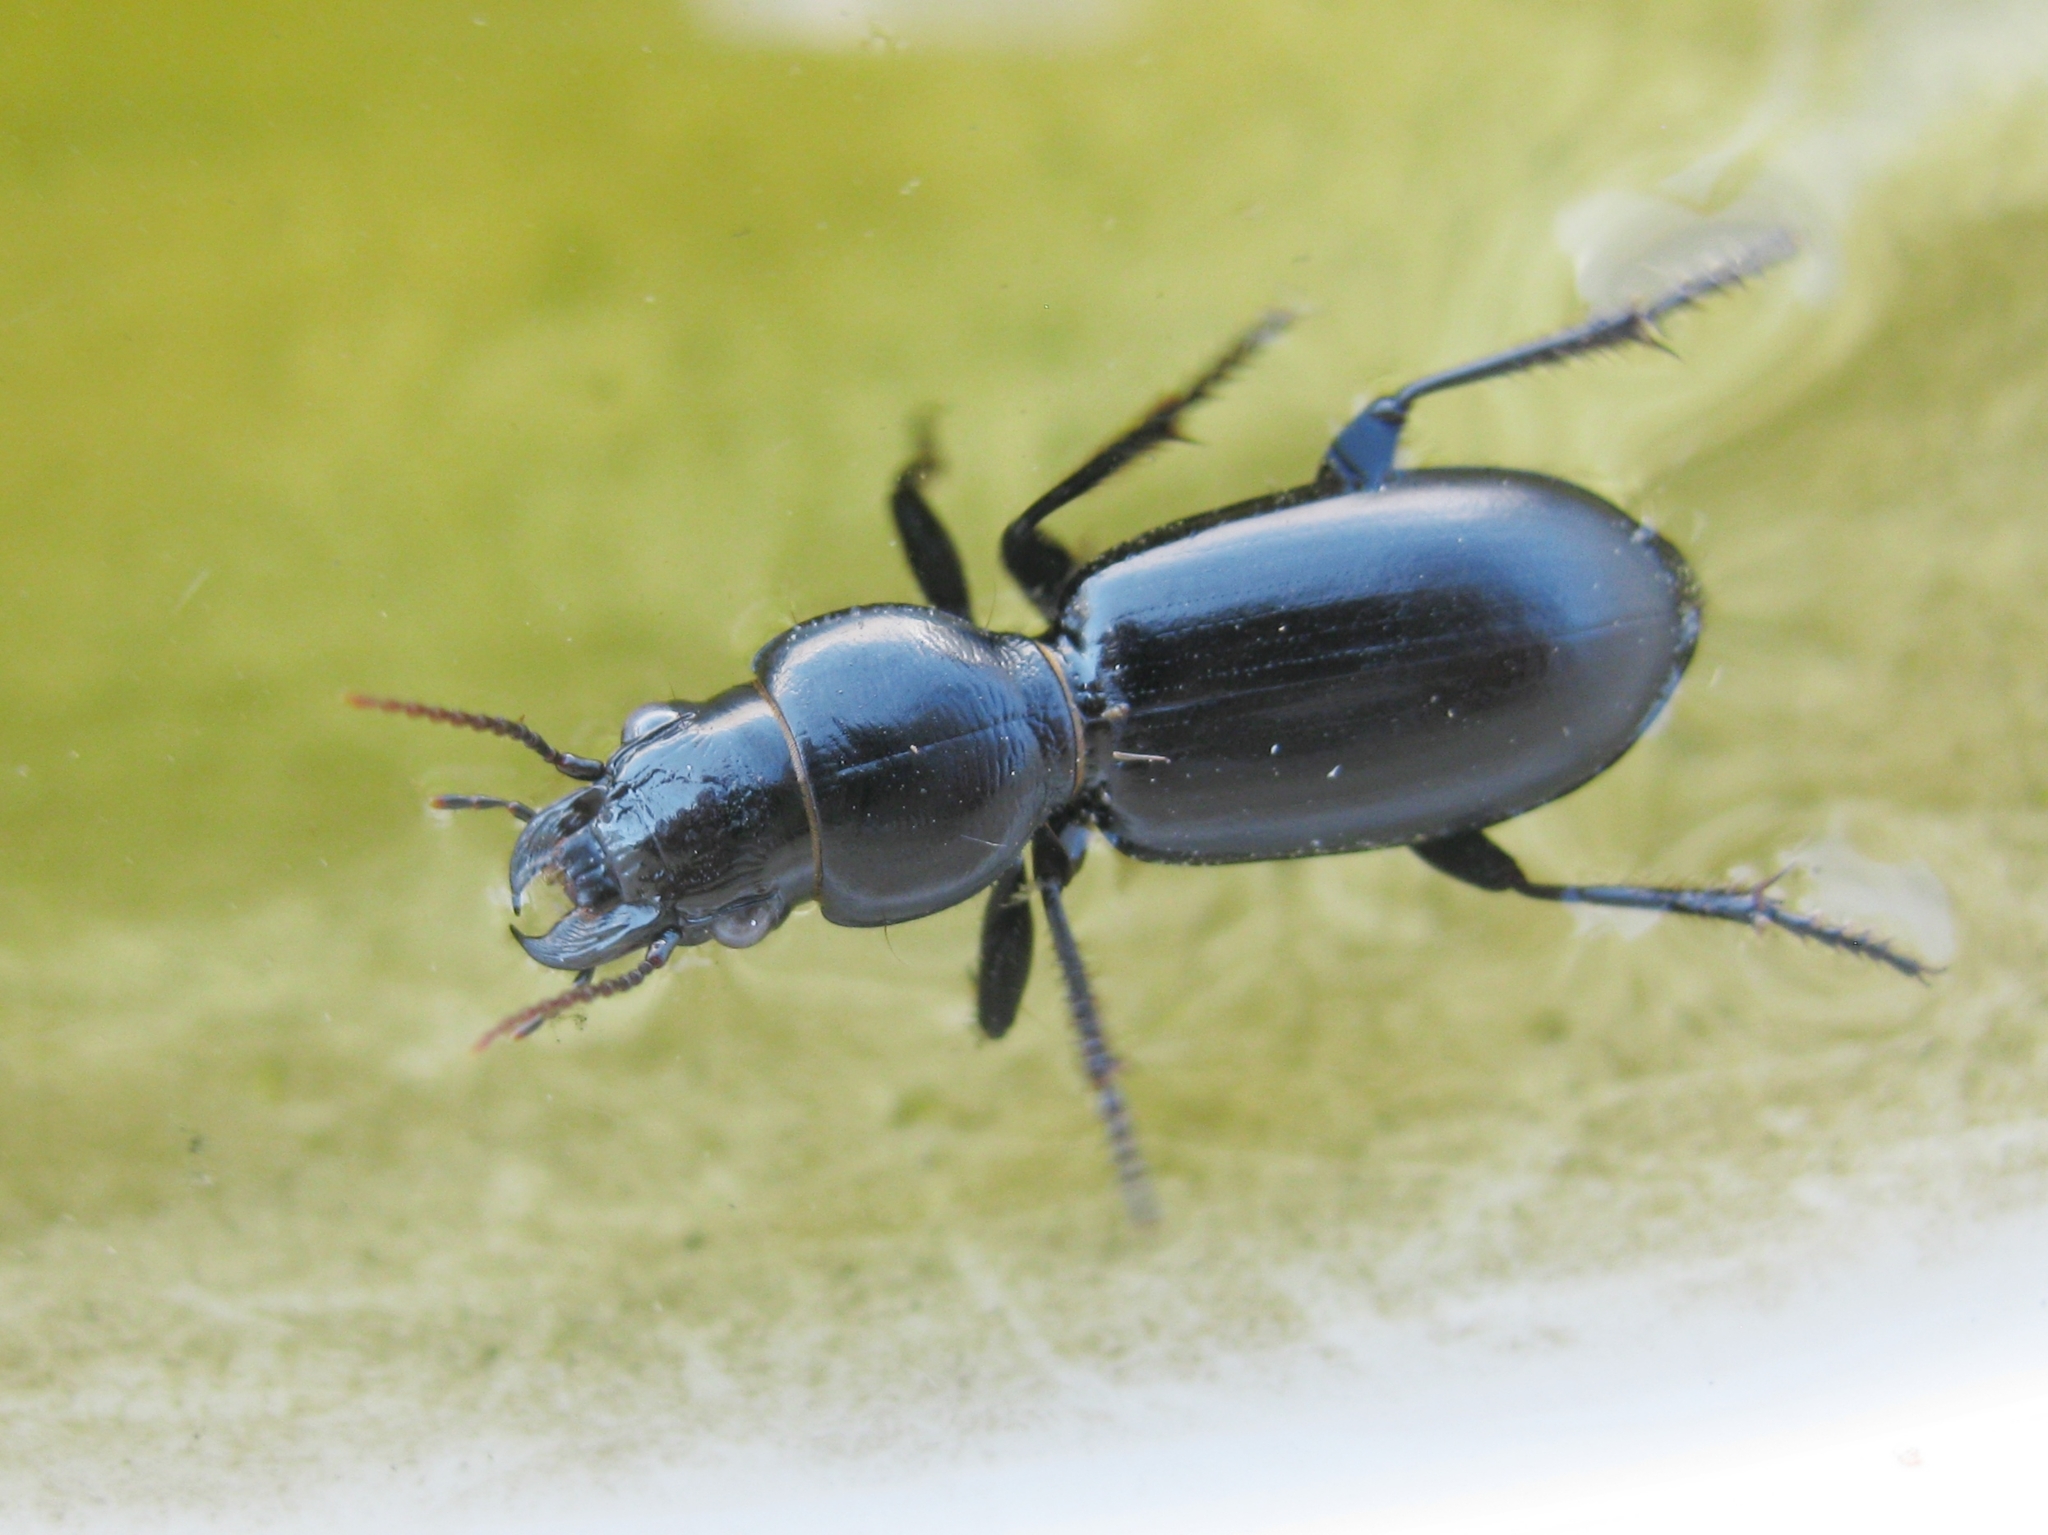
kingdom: Animalia
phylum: Arthropoda
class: Insecta
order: Coleoptera
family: Carabidae
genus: Broscus
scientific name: Broscus cephalotes
